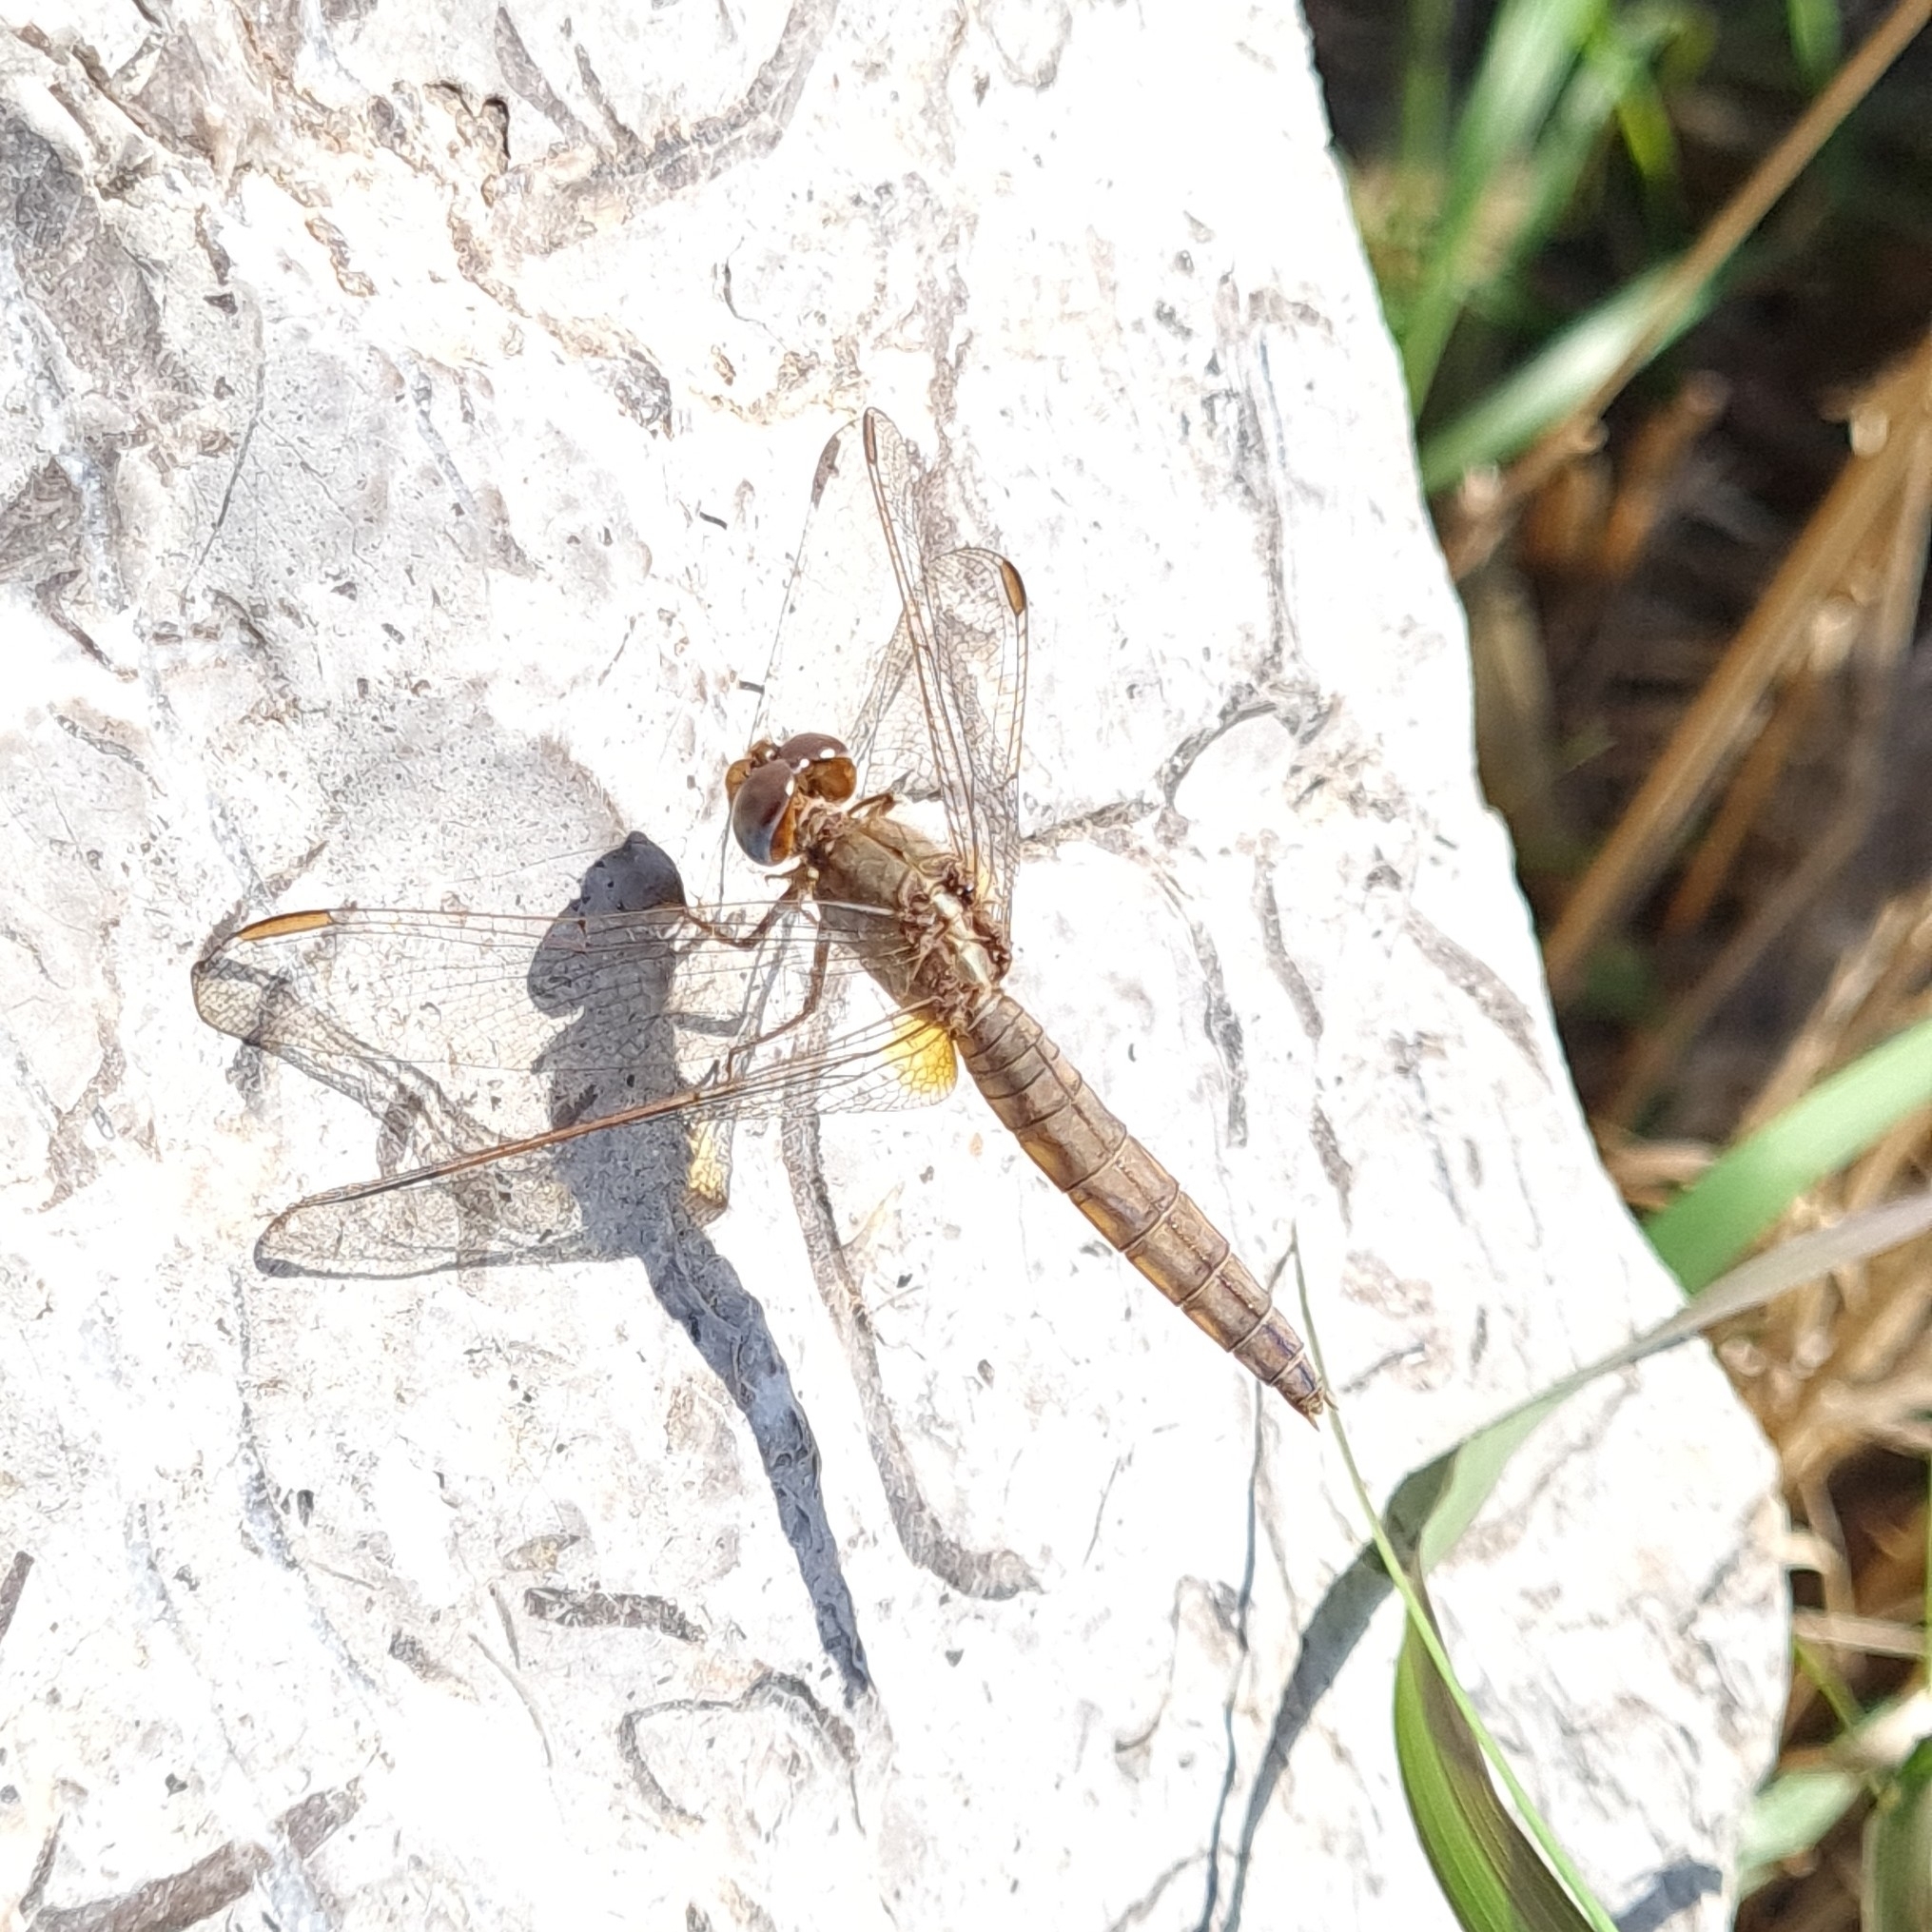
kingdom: Animalia
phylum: Arthropoda
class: Insecta
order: Odonata
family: Libellulidae
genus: Crocothemis
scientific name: Crocothemis erythraea
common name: Scarlet dragonfly
